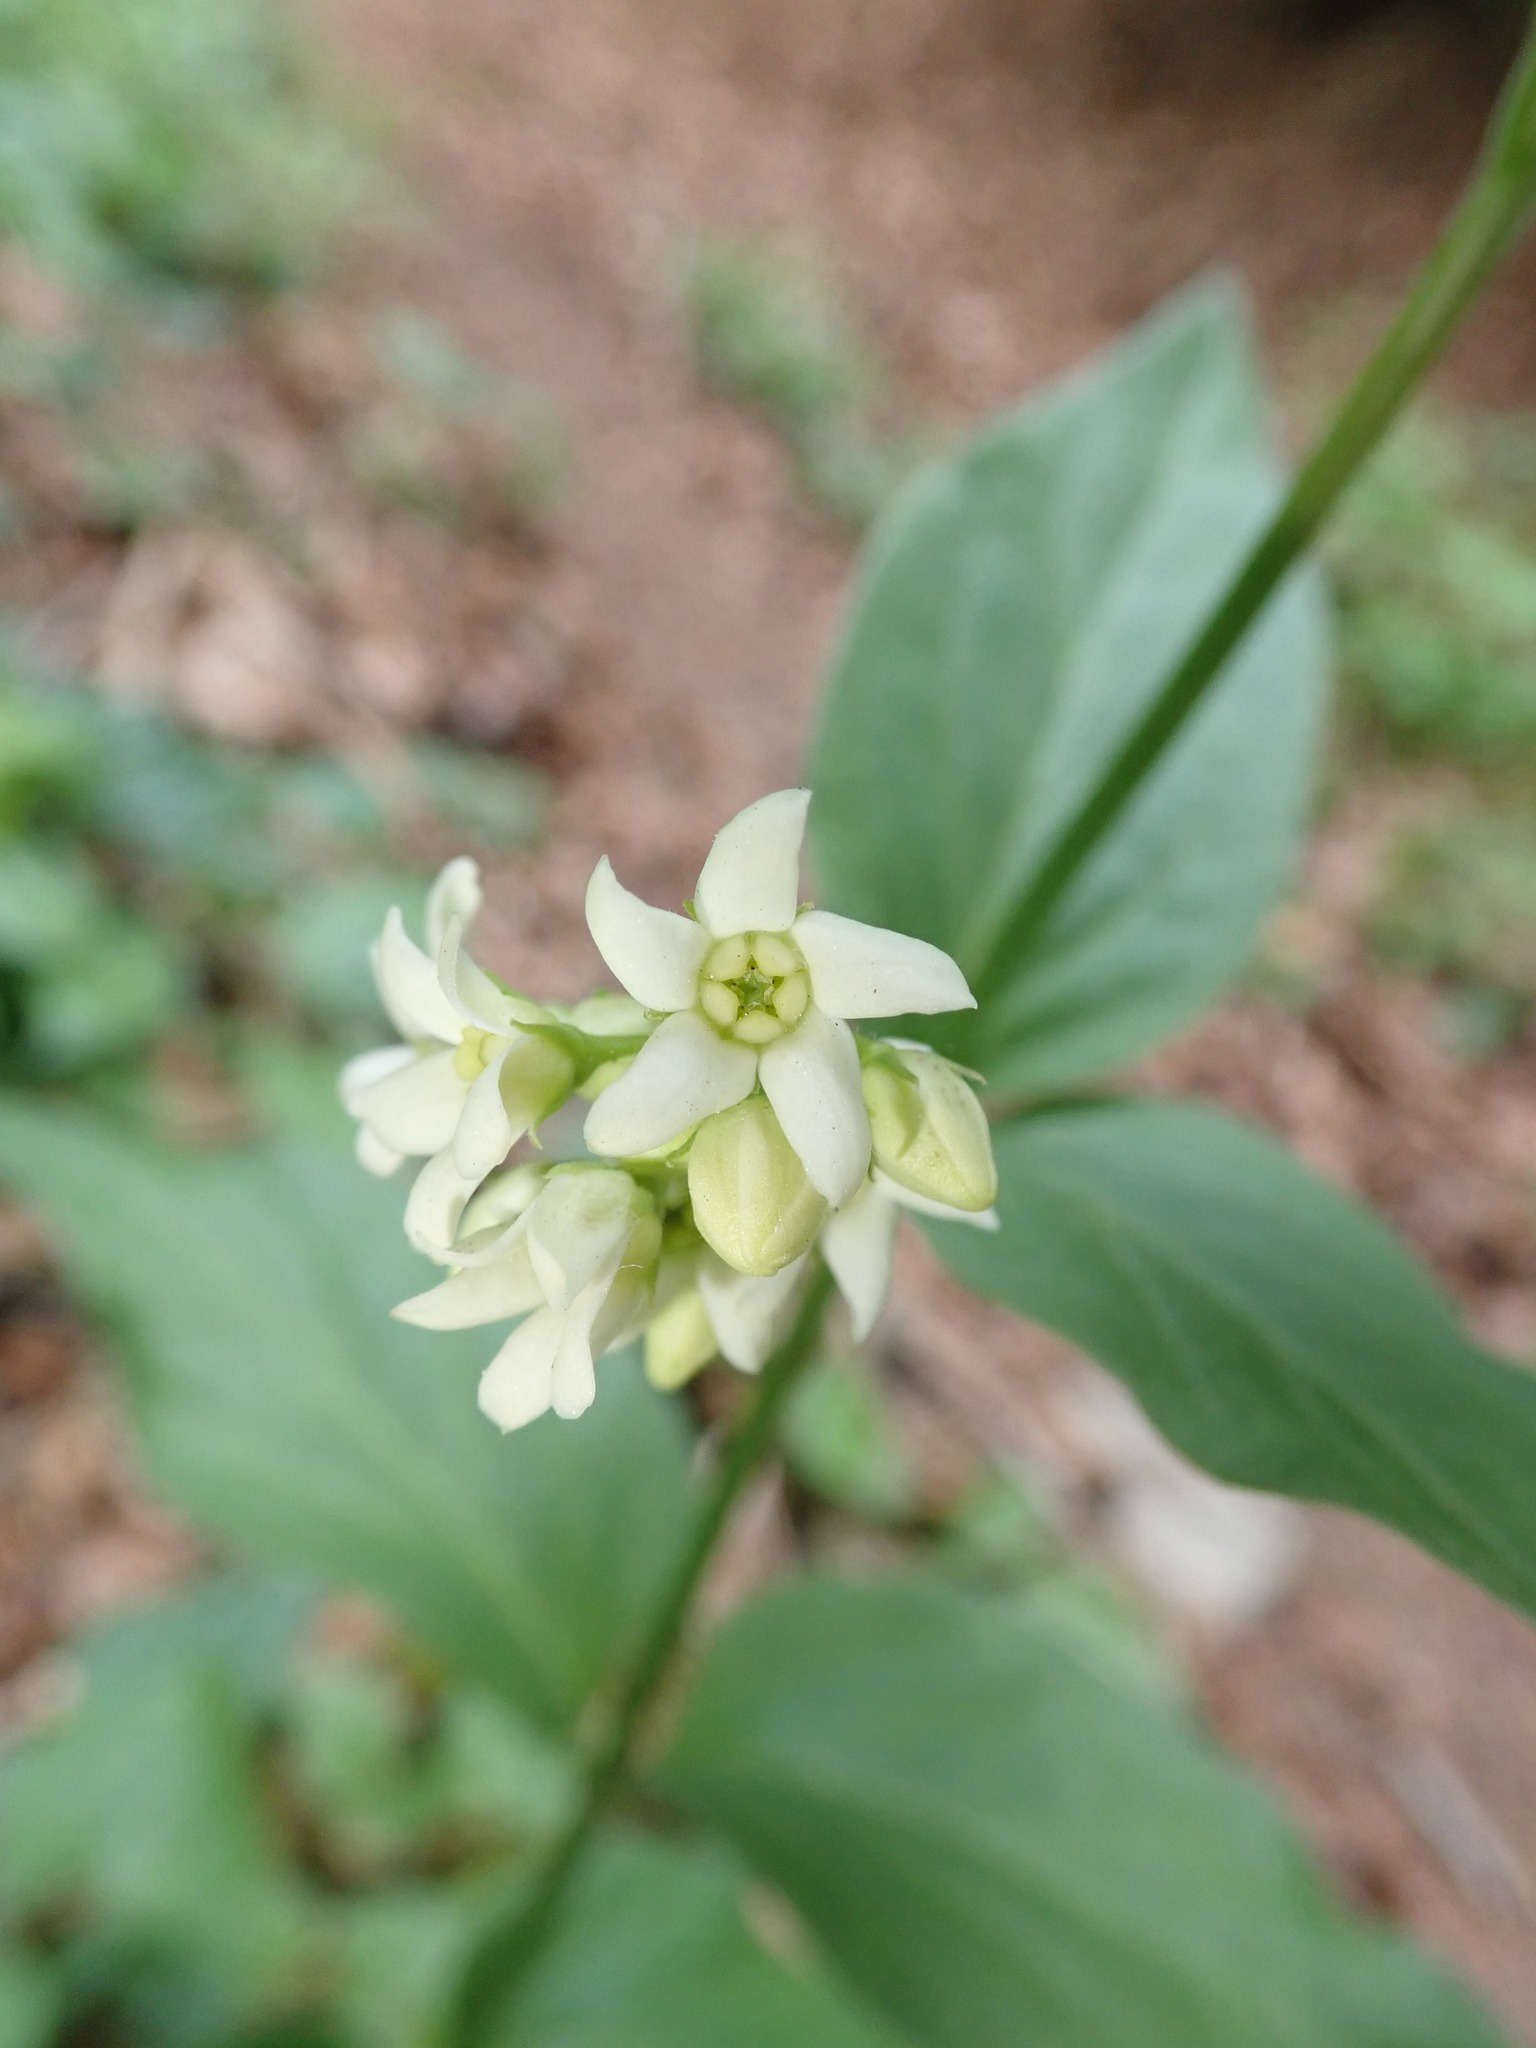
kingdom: Plantae
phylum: Tracheophyta
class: Magnoliopsida
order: Gentianales
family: Apocynaceae
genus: Vincetoxicum
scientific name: Vincetoxicum hirundinaria
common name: White swallowwort
